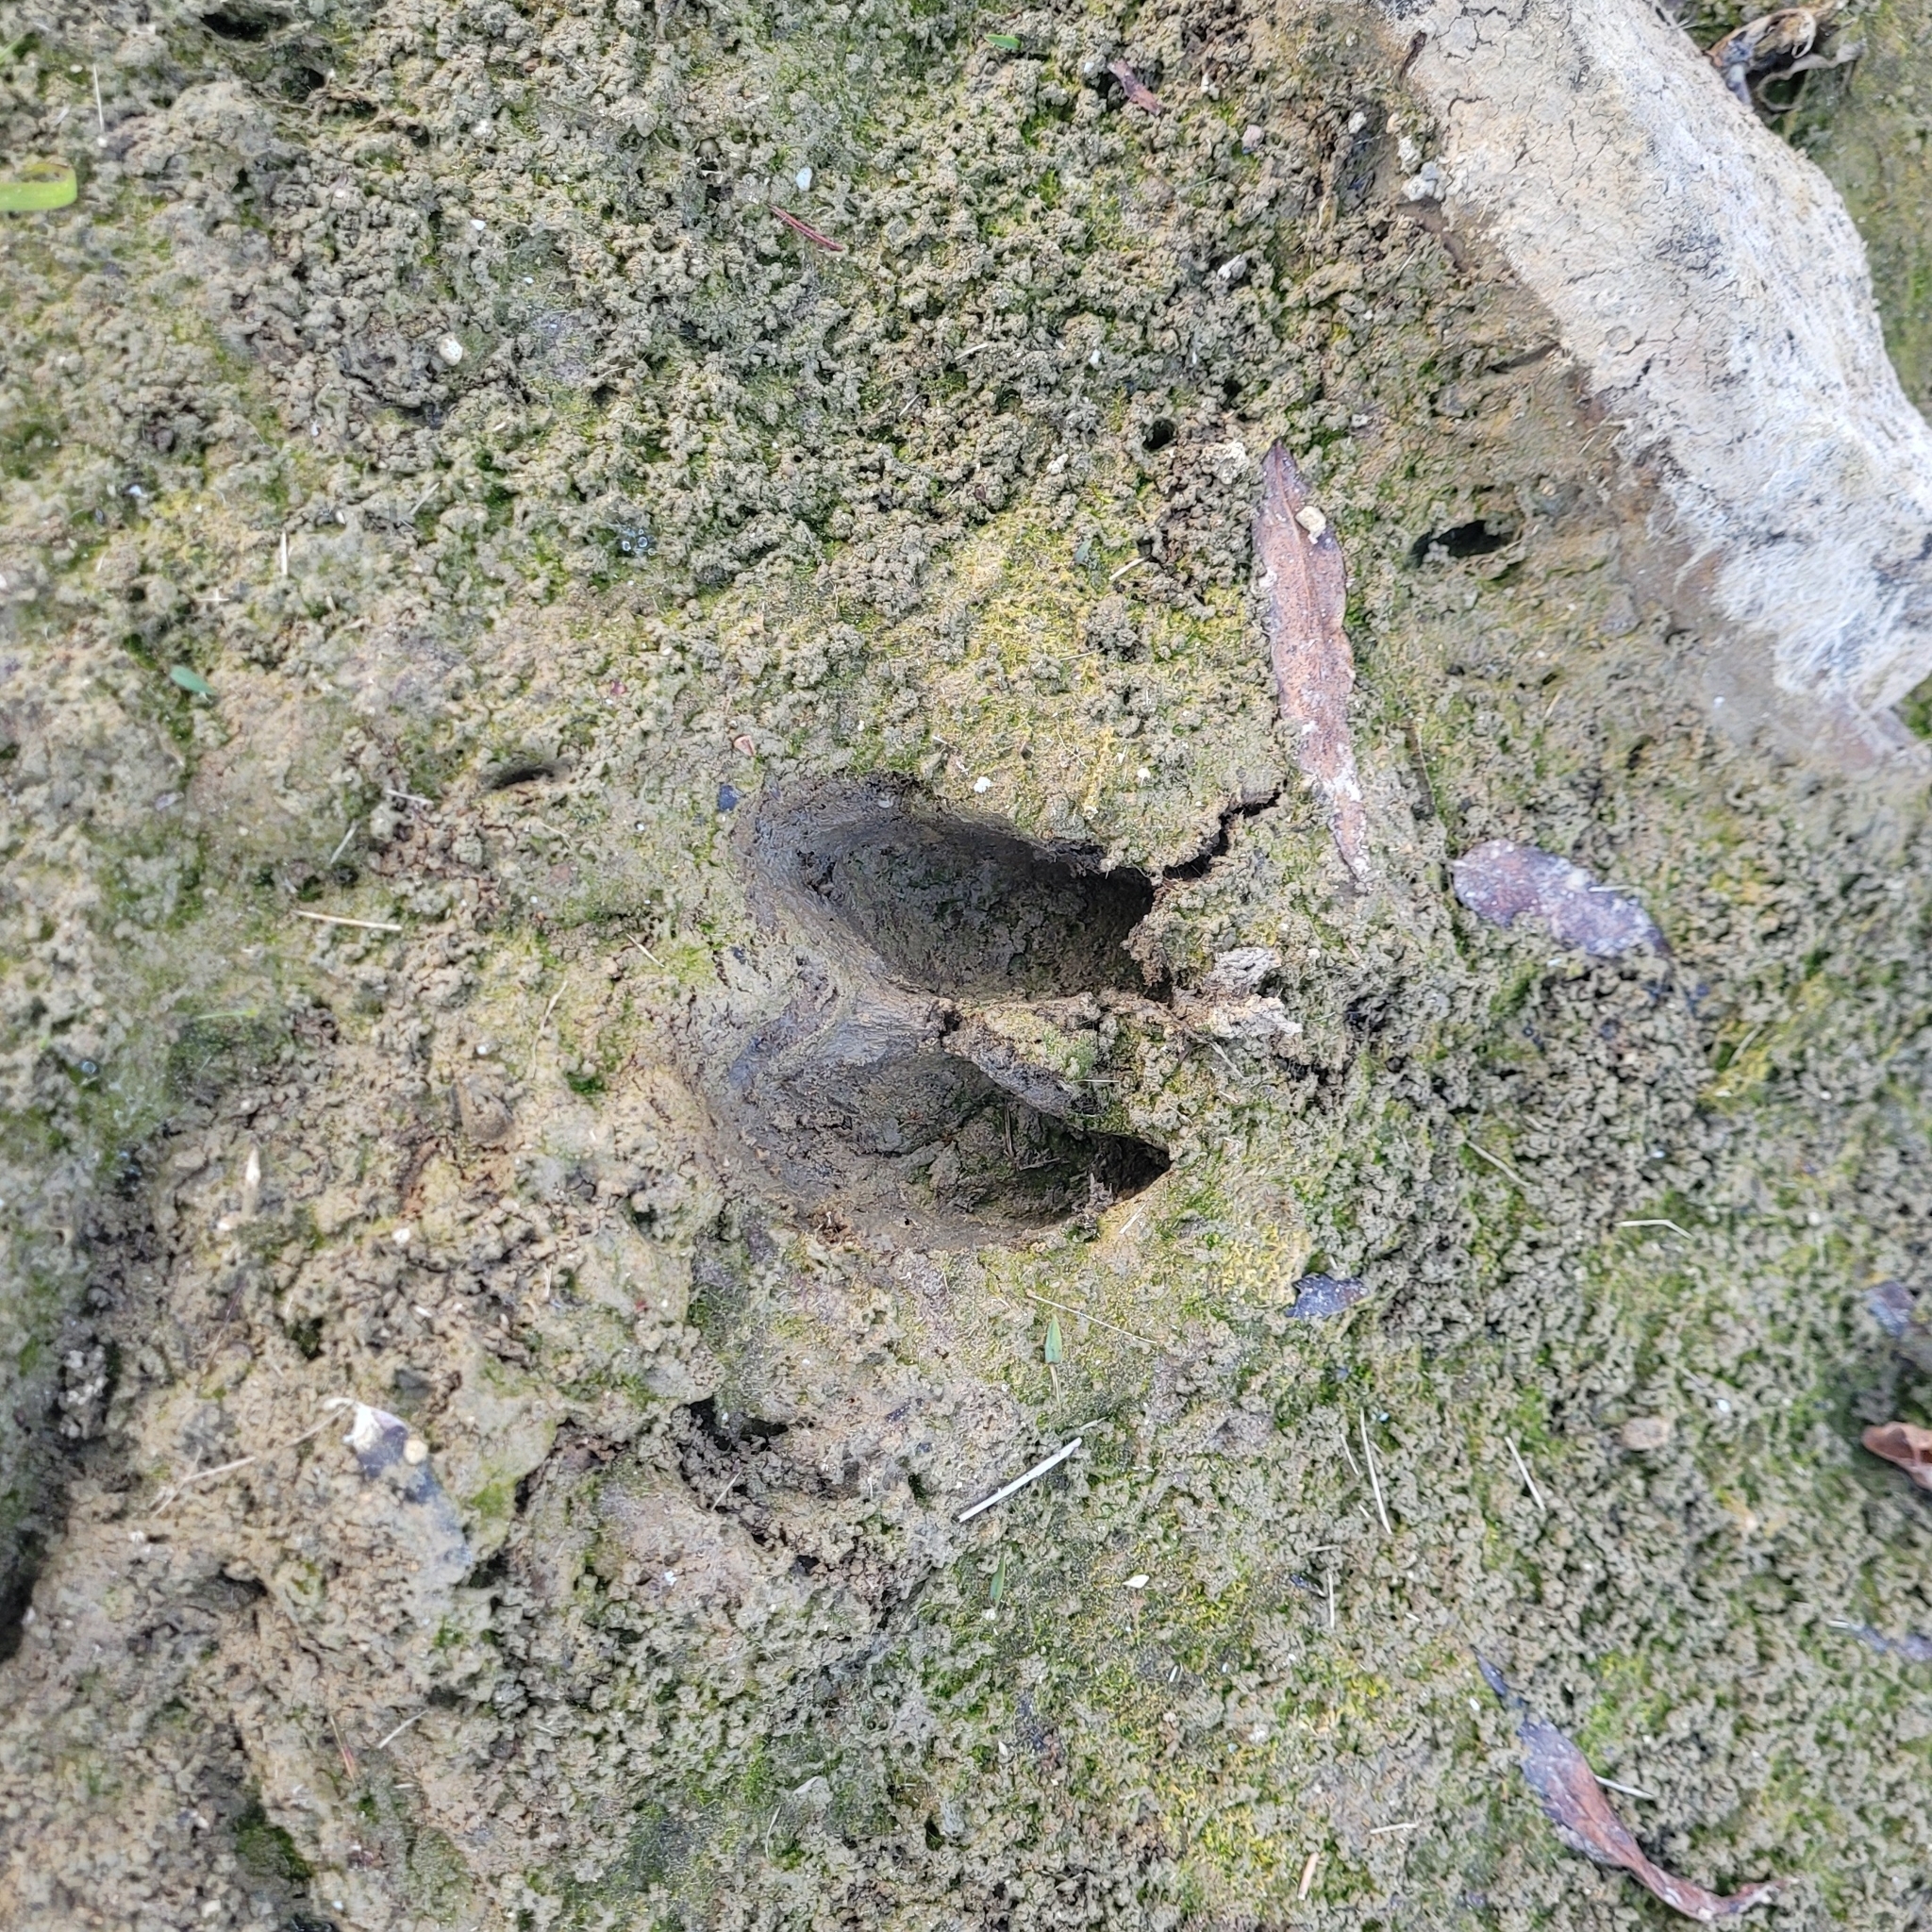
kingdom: Animalia
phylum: Chordata
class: Mammalia
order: Artiodactyla
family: Cervidae
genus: Odocoileus
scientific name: Odocoileus virginianus
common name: White-tailed deer
